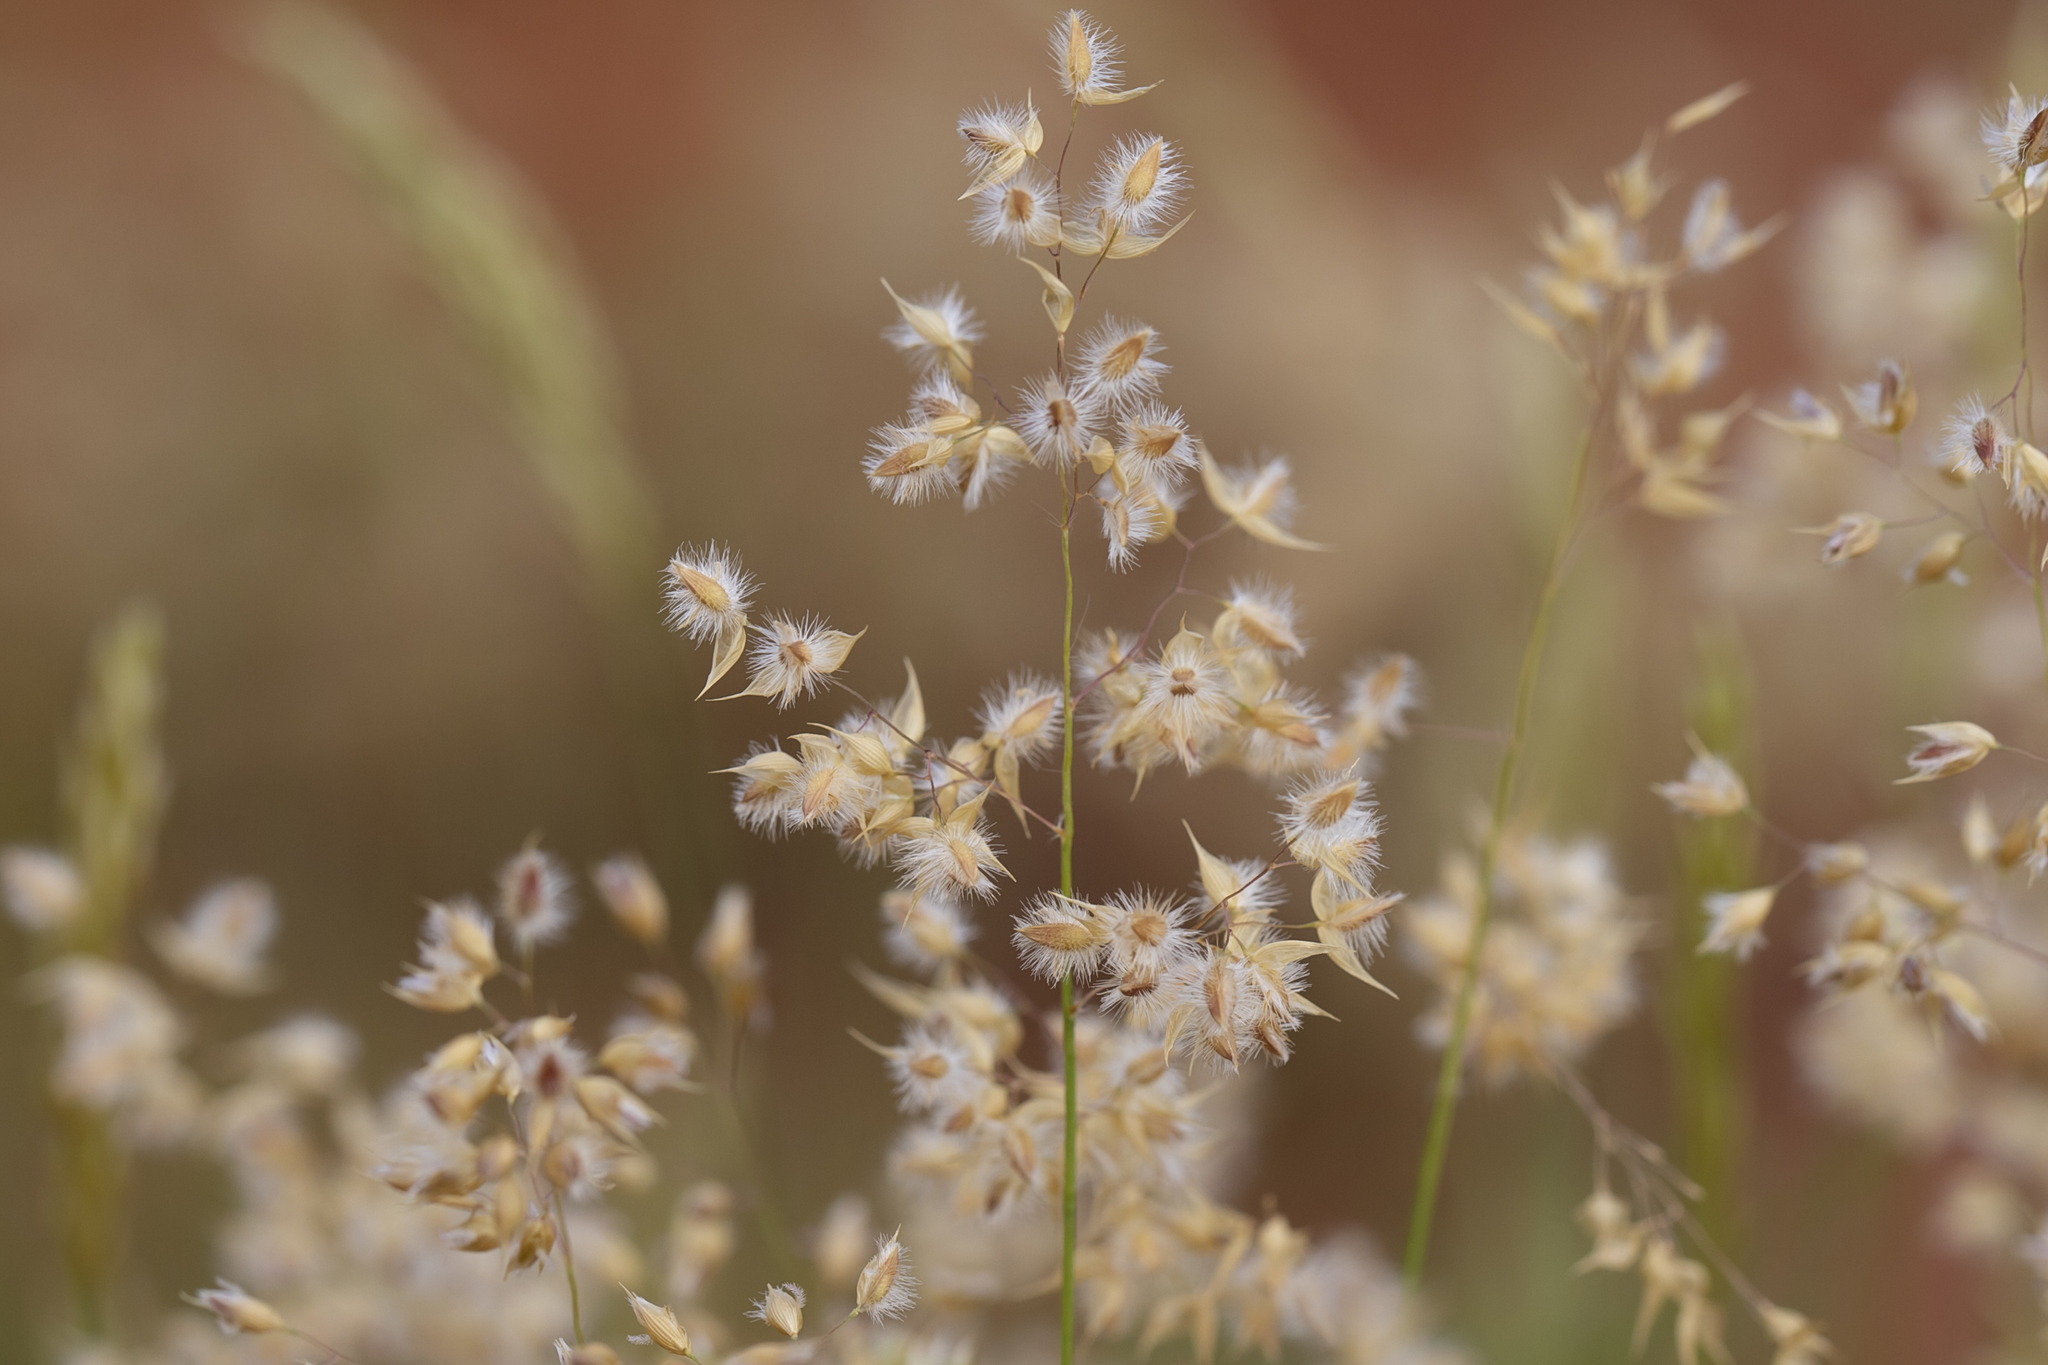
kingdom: Plantae
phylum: Tracheophyta
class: Liliopsida
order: Poales
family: Poaceae
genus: Eriachne
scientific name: Eriachne obtusa
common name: Northern wanderrie grass
